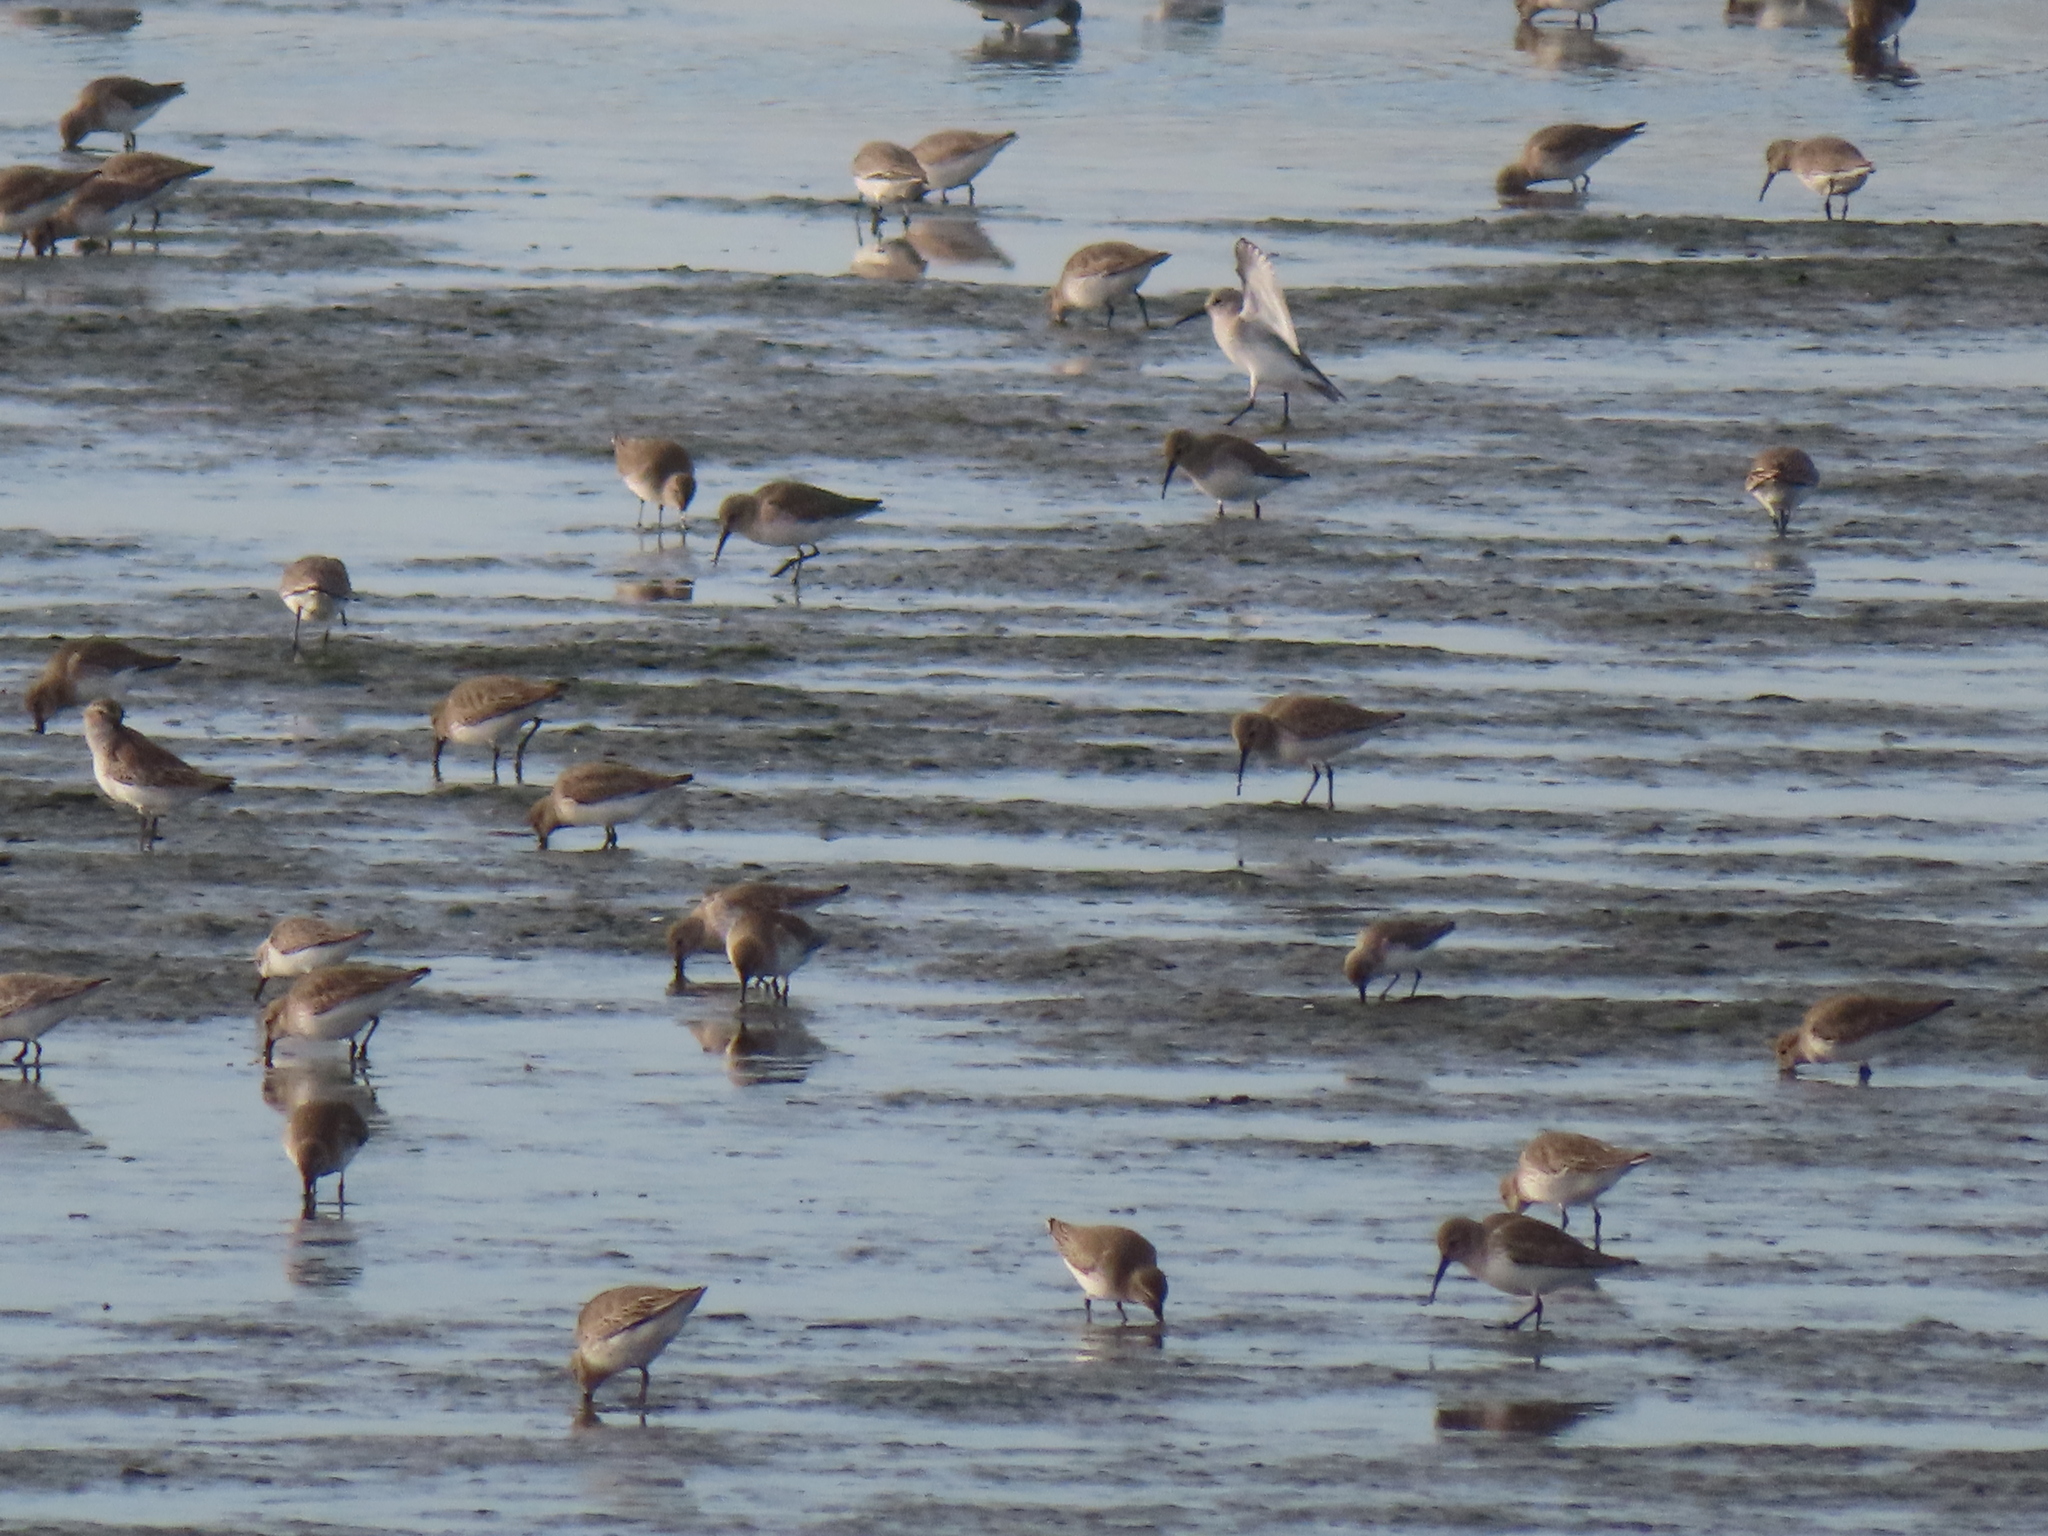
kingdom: Animalia
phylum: Chordata
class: Aves
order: Charadriiformes
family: Scolopacidae
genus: Calidris
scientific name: Calidris alpina
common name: Dunlin
